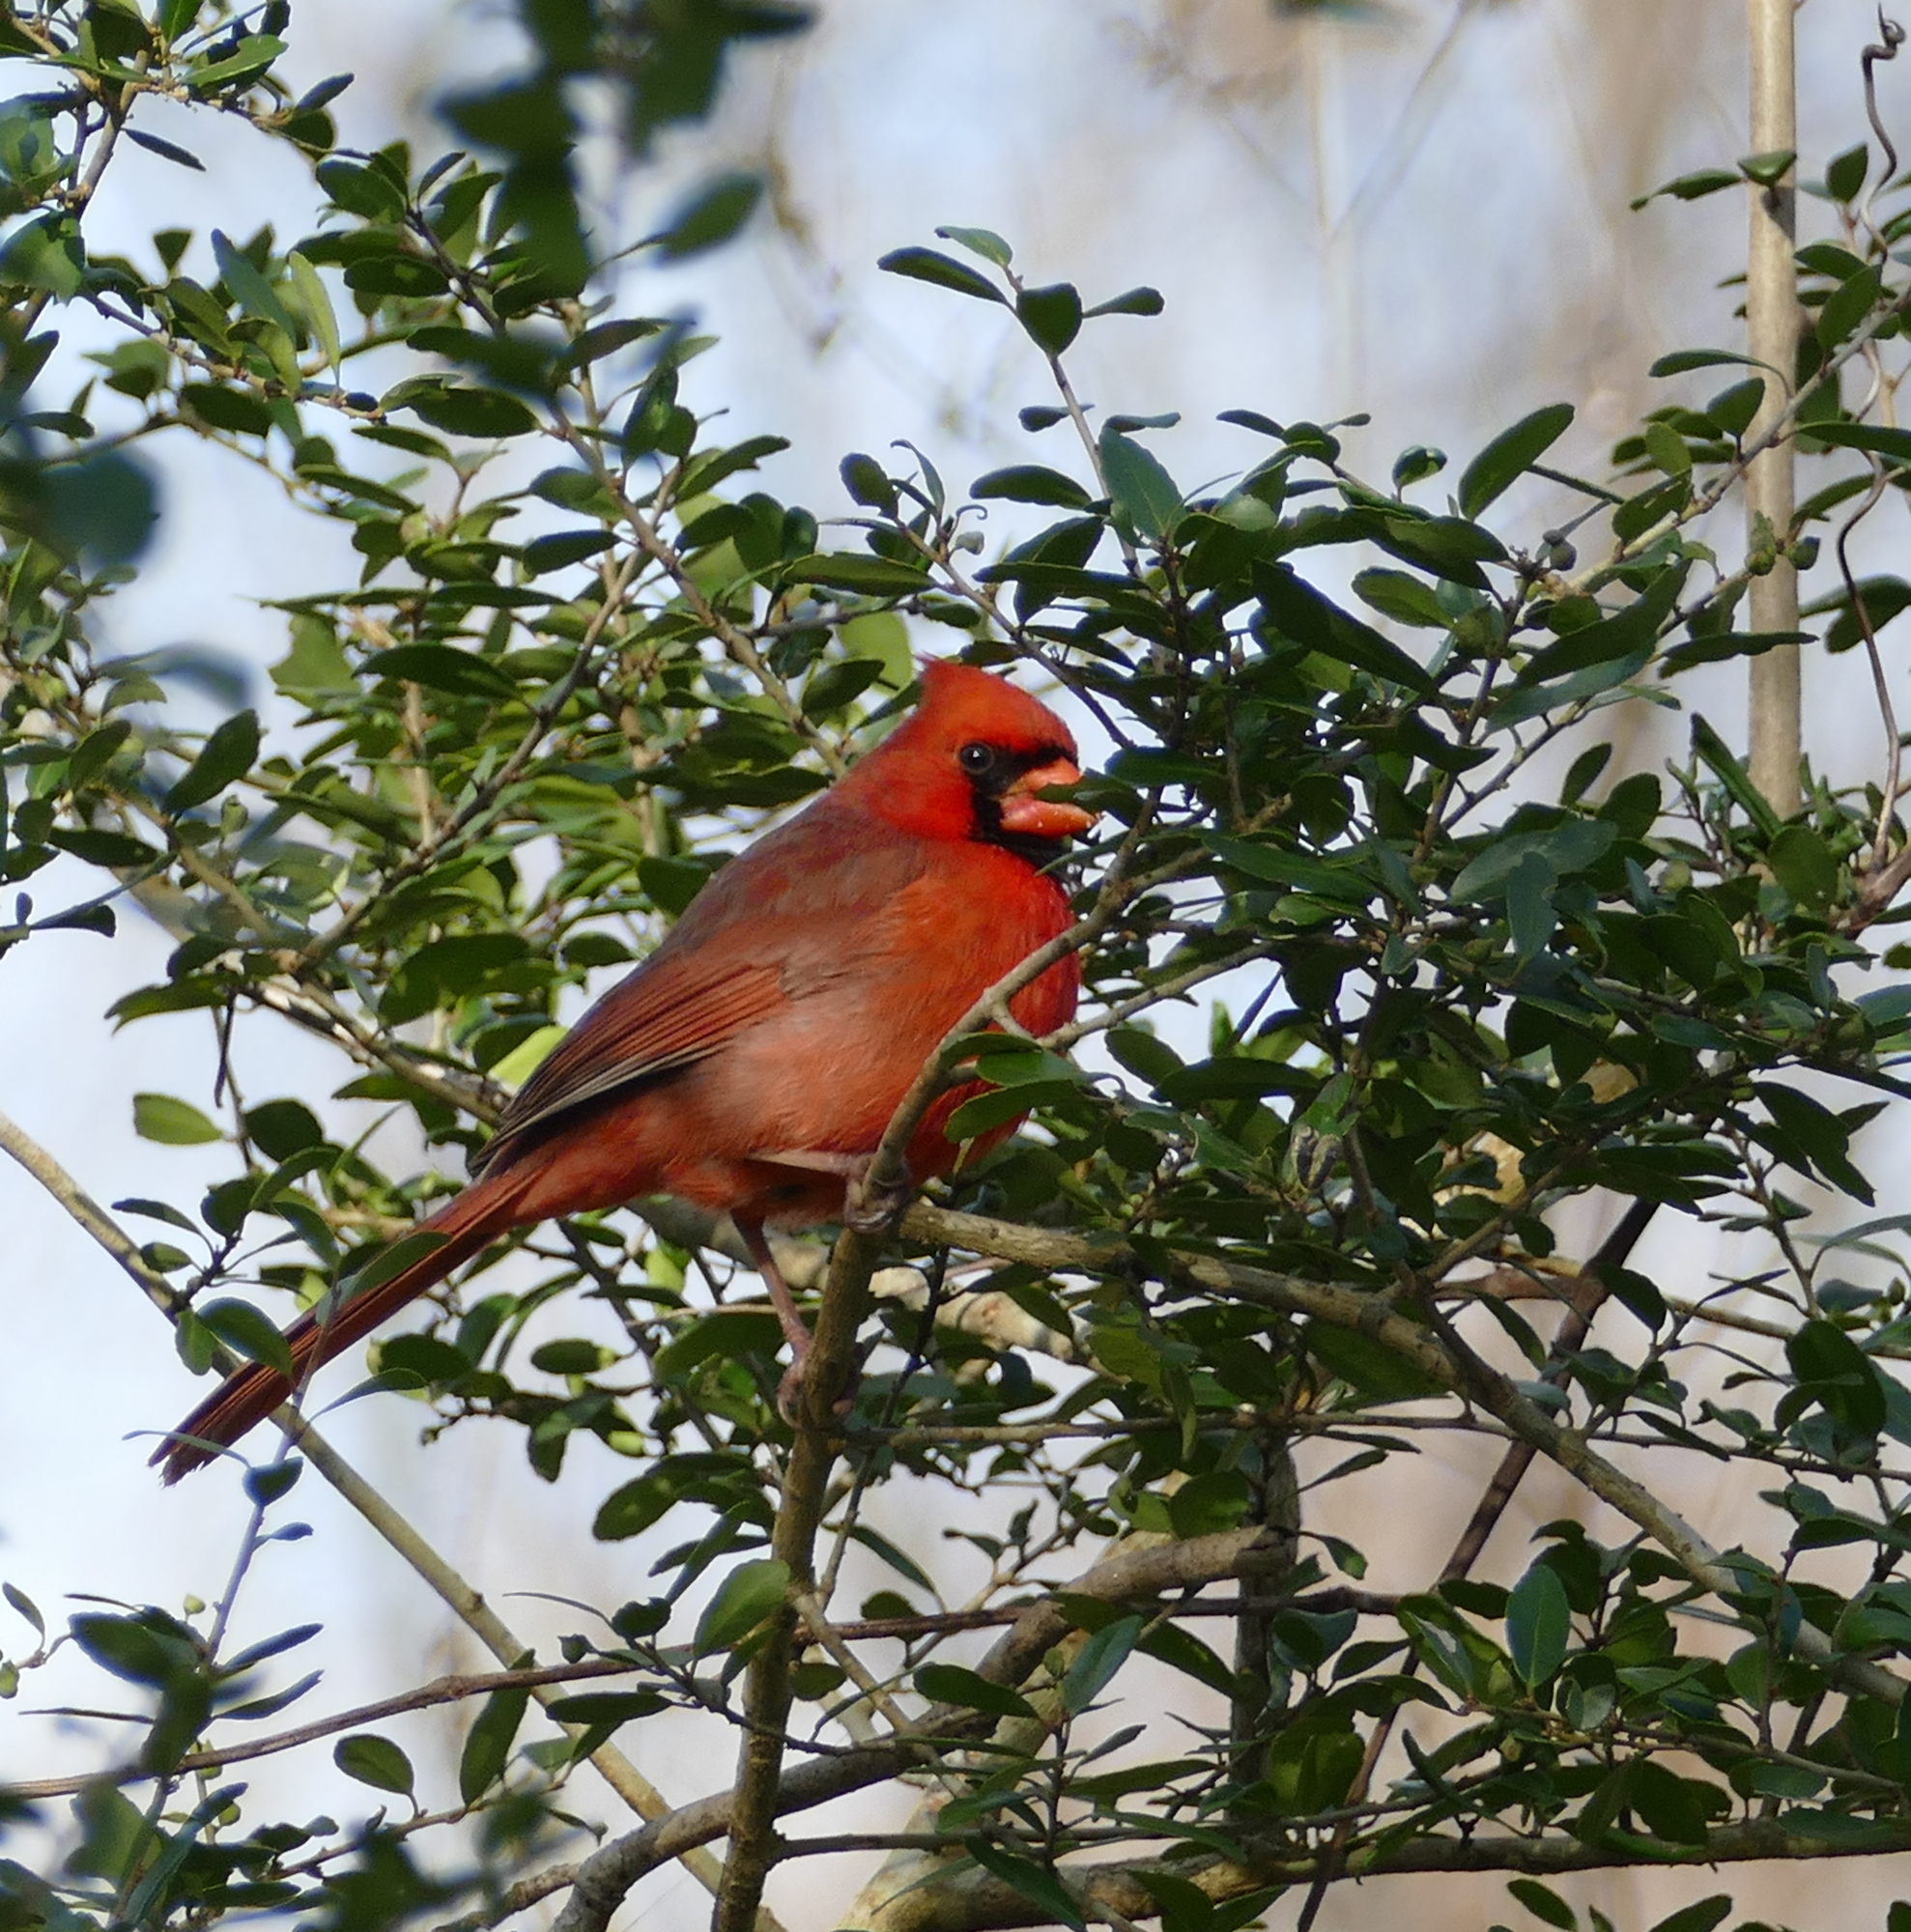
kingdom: Animalia
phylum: Chordata
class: Aves
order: Passeriformes
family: Cardinalidae
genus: Cardinalis
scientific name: Cardinalis cardinalis
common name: Northern cardinal
